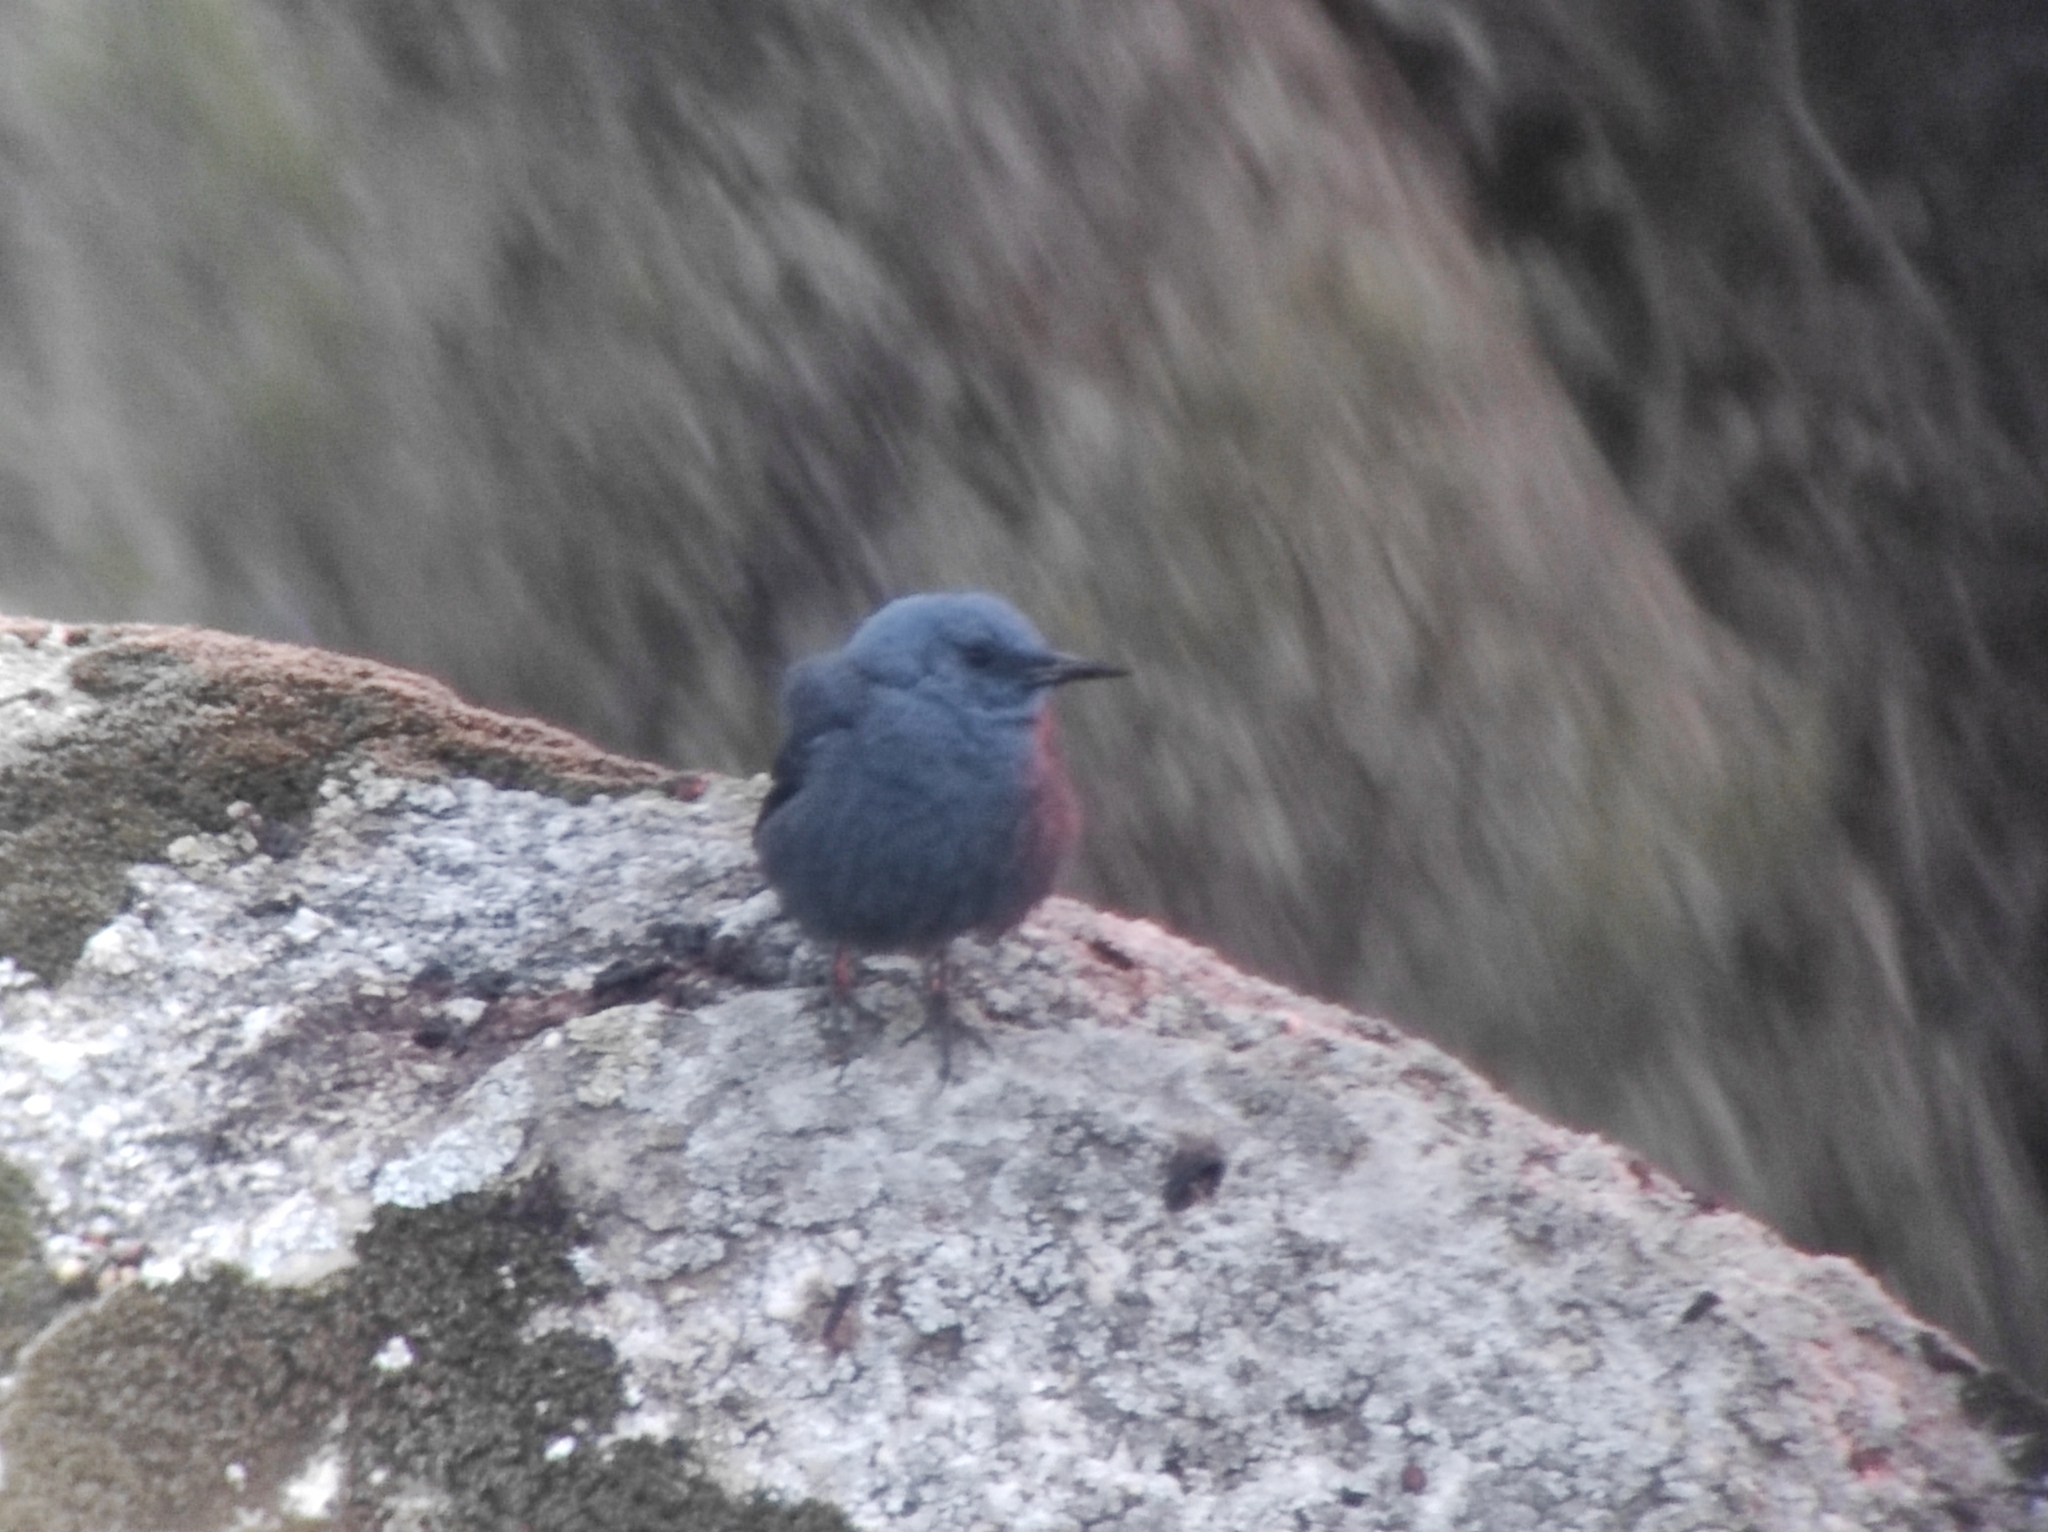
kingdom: Animalia
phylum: Chordata
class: Aves
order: Passeriformes
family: Muscicapidae
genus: Monticola
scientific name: Monticola solitarius
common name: Blue rock thrush
